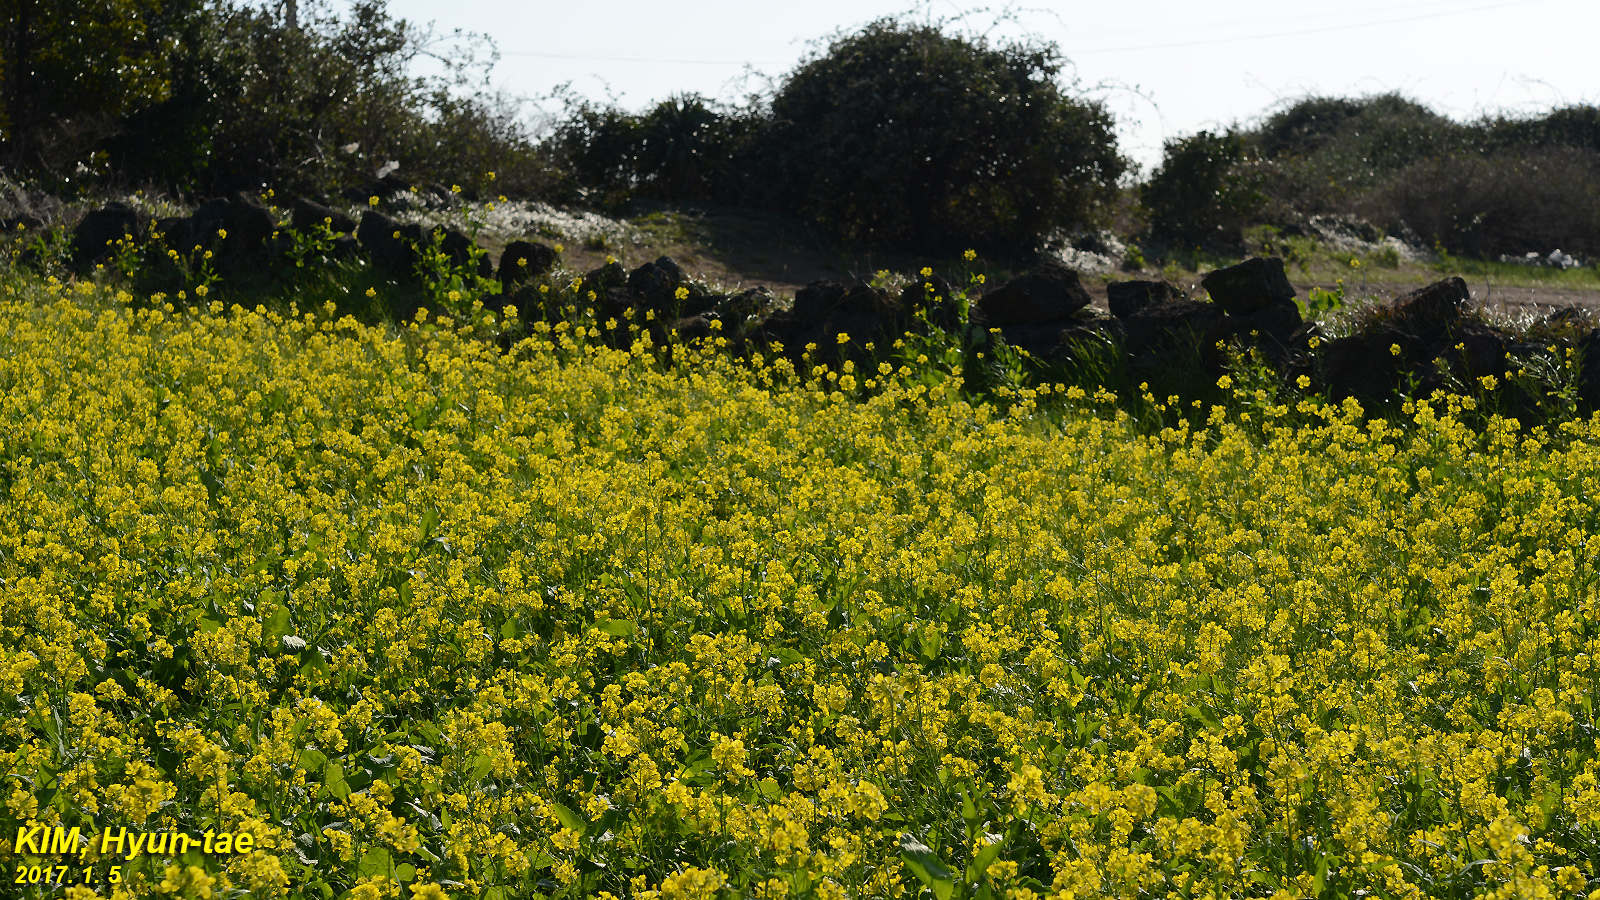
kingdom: Plantae
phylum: Tracheophyta
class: Magnoliopsida
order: Brassicales
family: Brassicaceae
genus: Brassica
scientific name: Brassica rapa
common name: Field mustard
